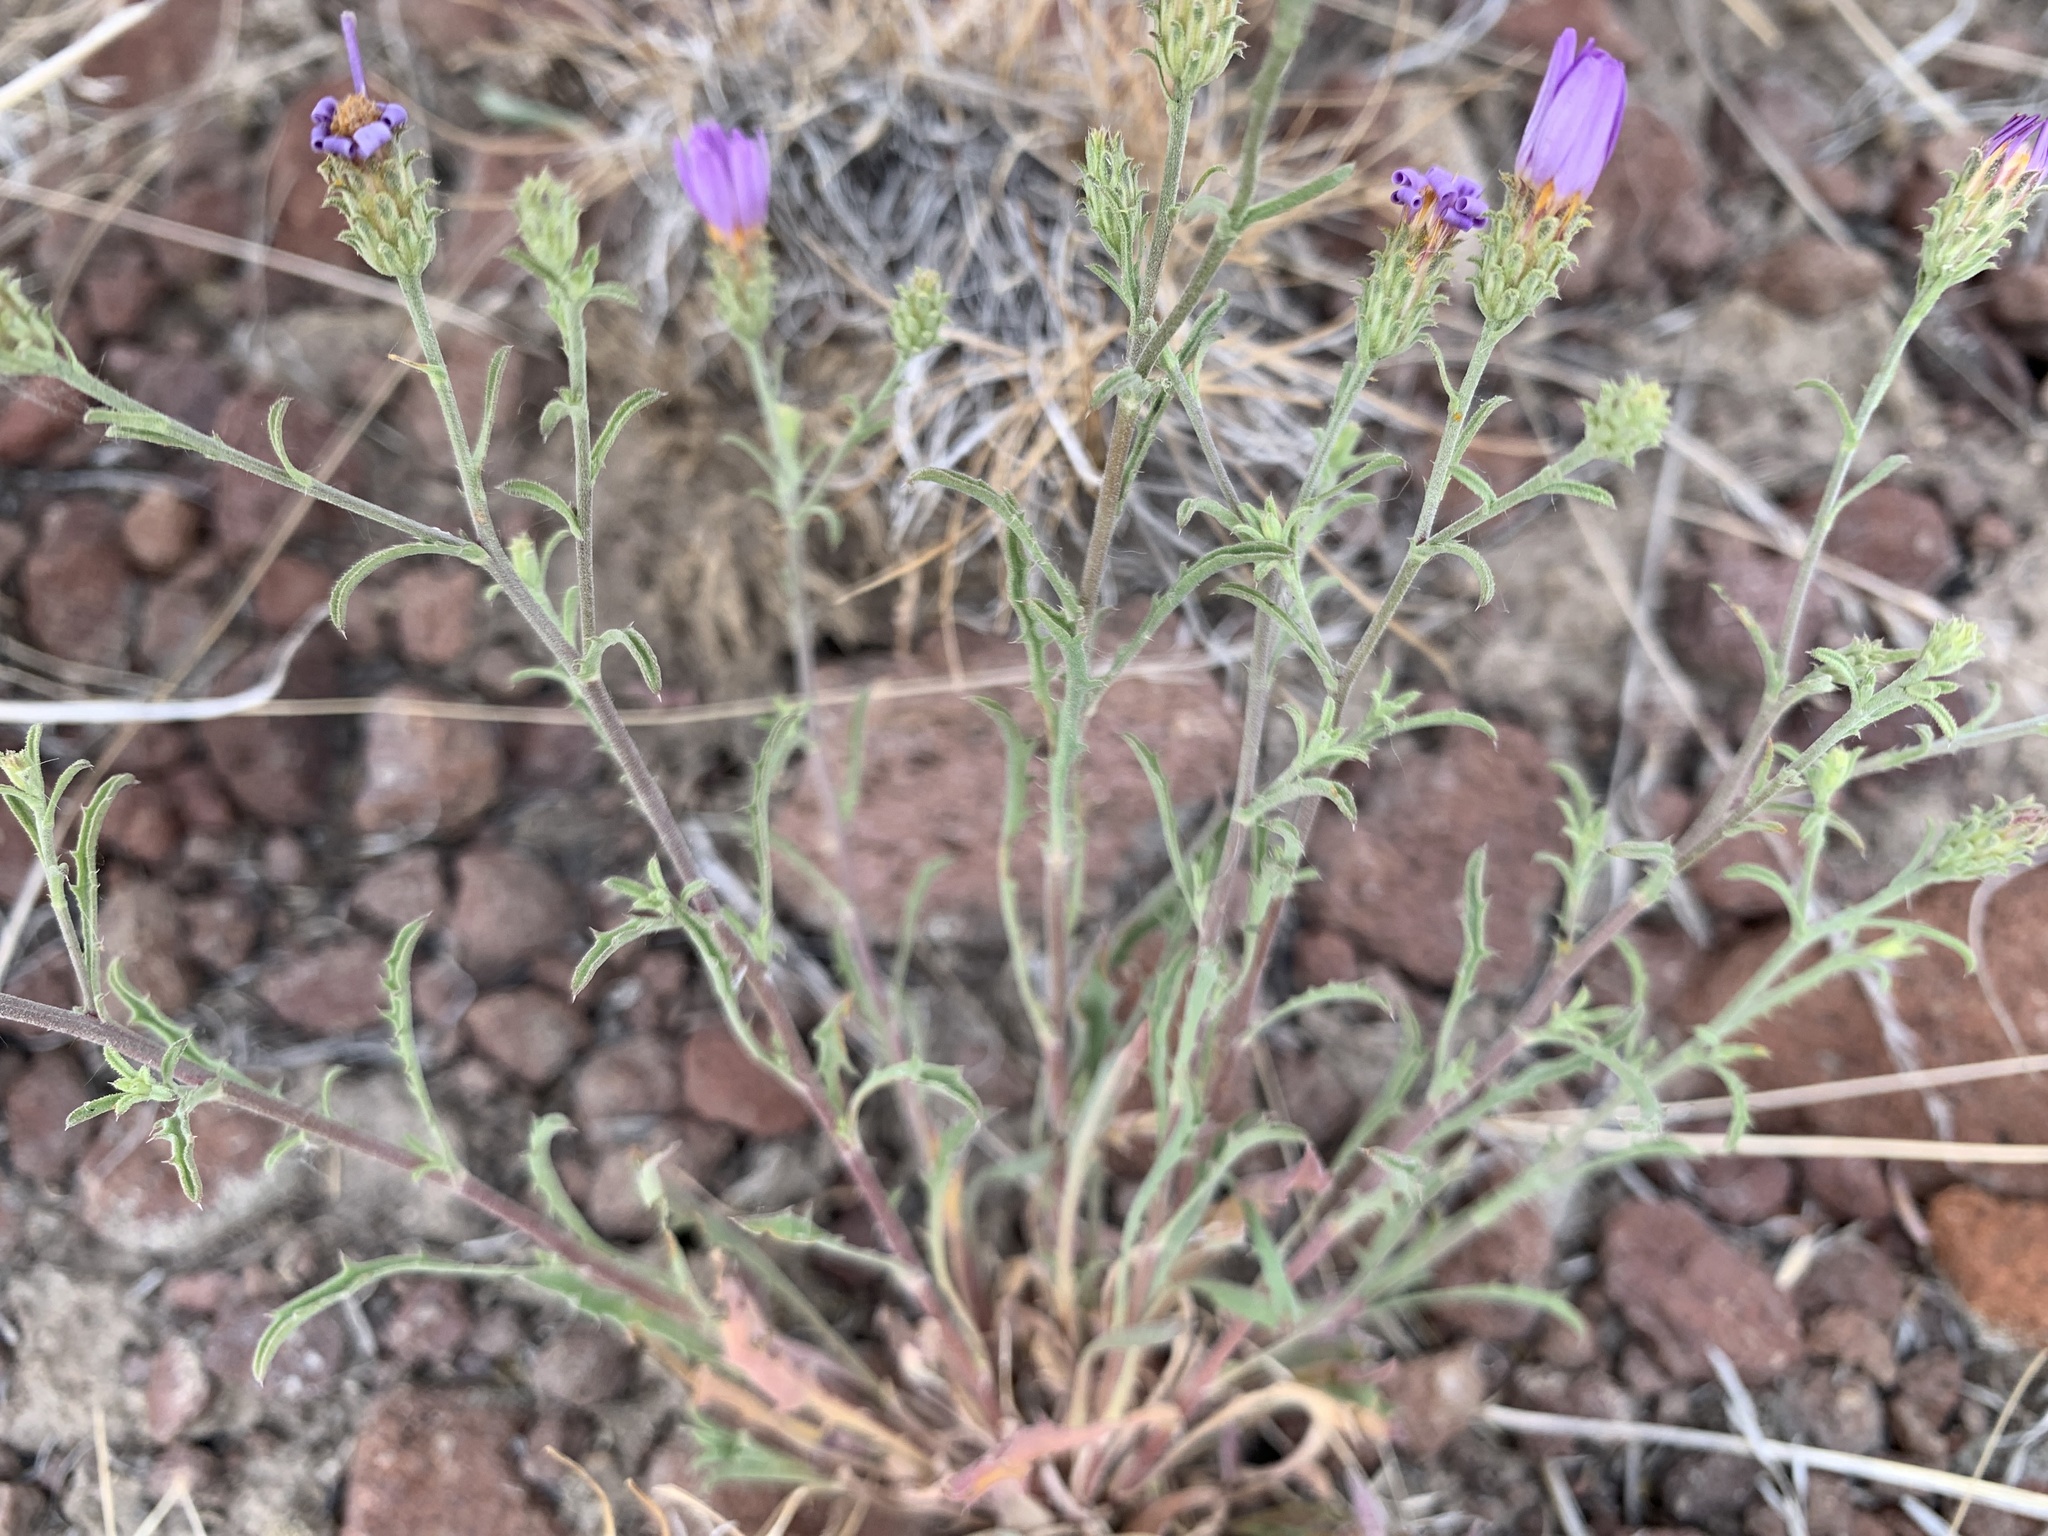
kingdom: Plantae
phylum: Tracheophyta
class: Magnoliopsida
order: Asterales
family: Asteraceae
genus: Dieteria
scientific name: Dieteria canescens
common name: Hoary-aster
